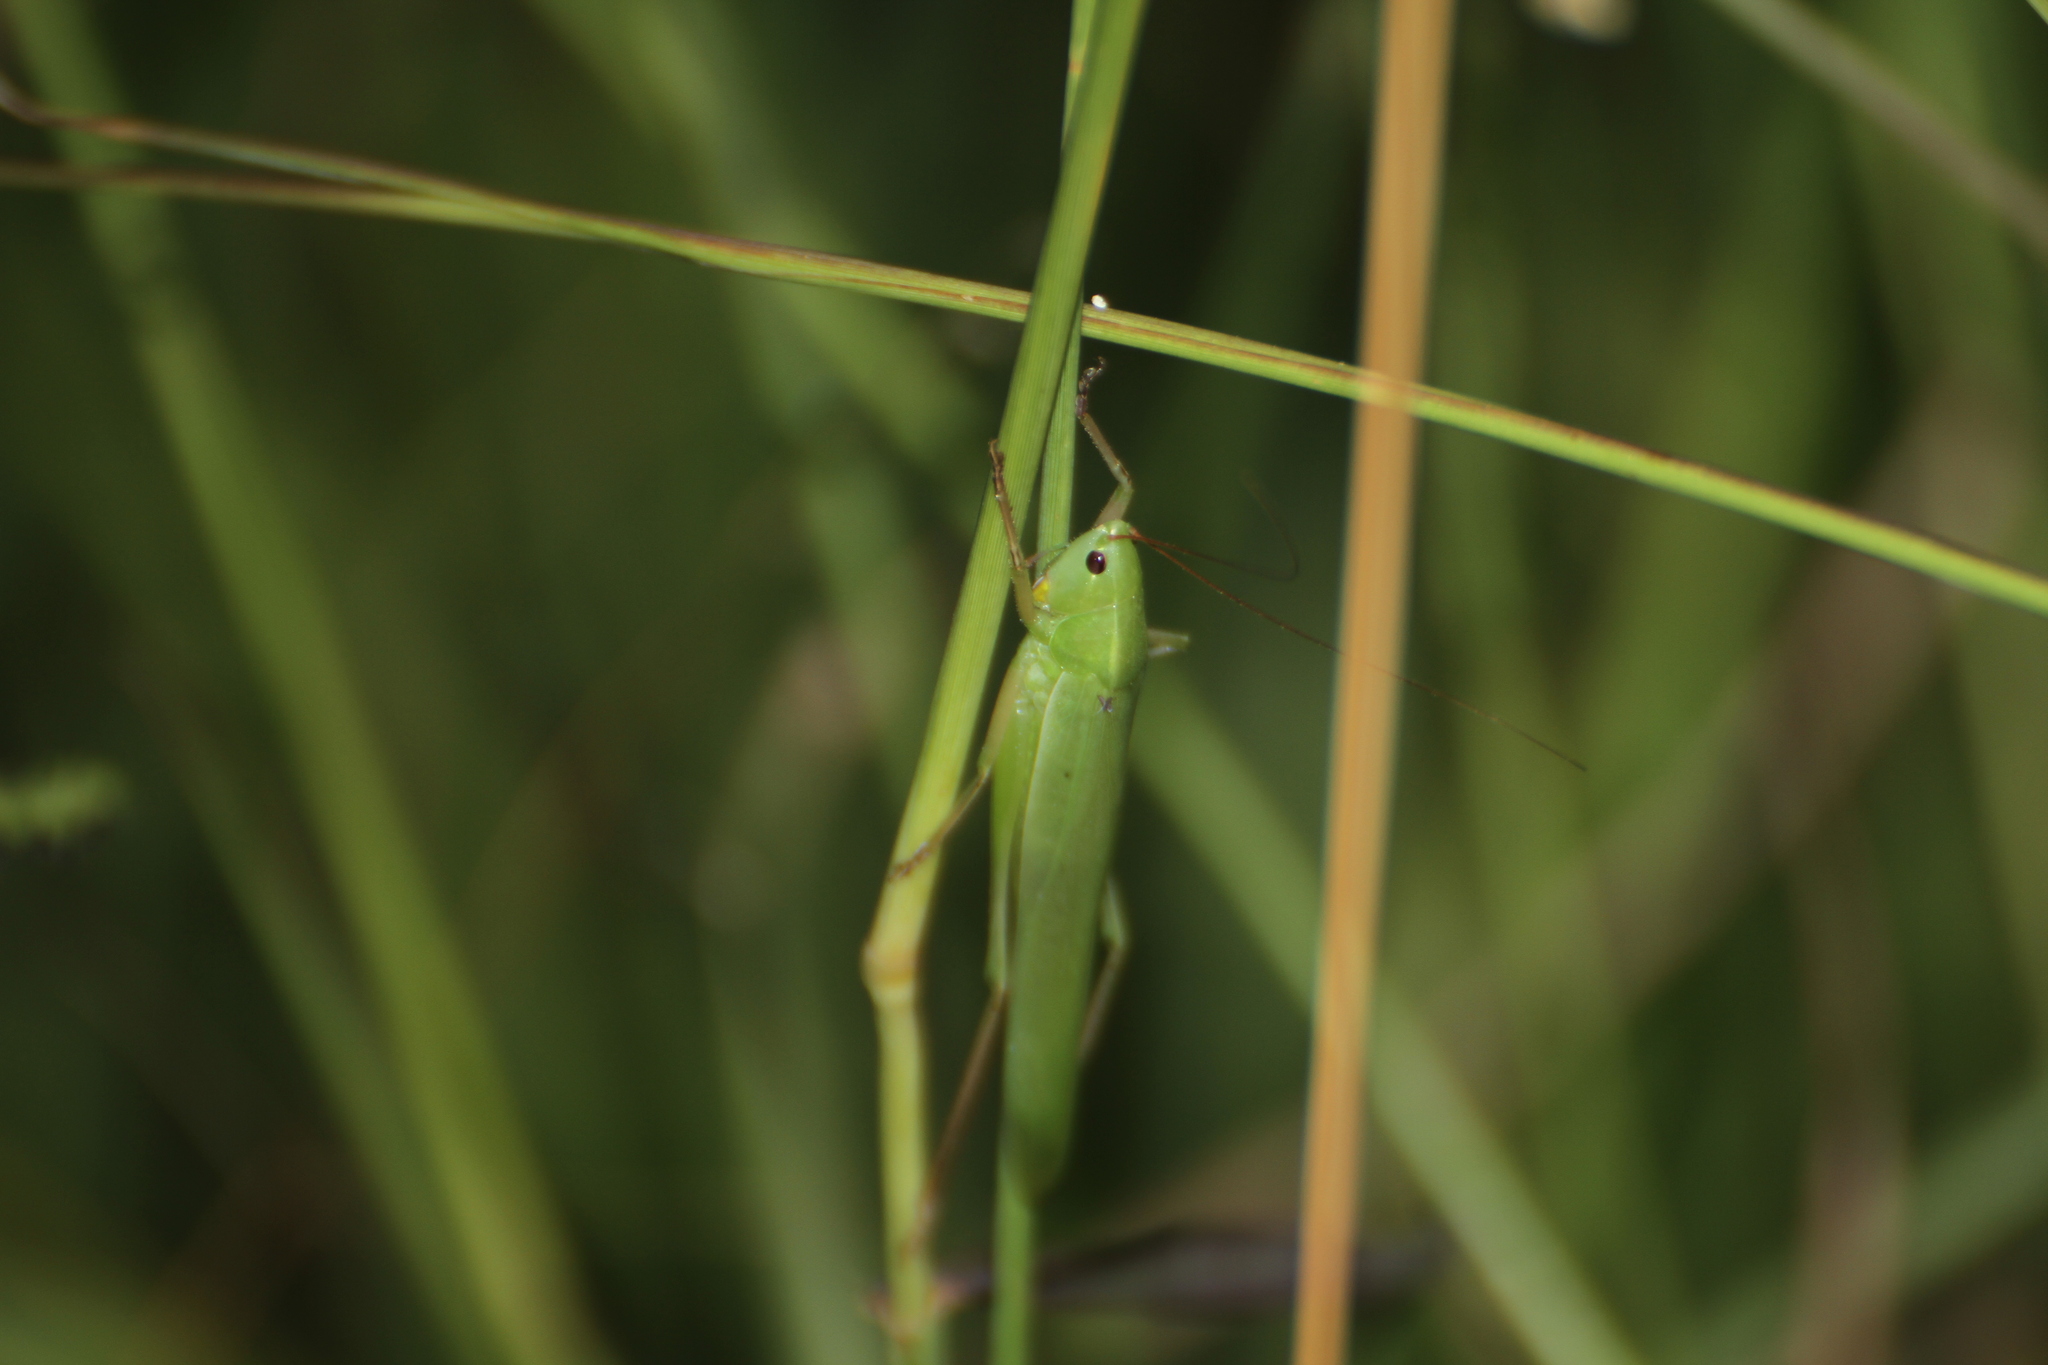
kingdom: Animalia
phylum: Arthropoda
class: Insecta
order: Orthoptera
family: Tettigoniidae
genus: Ruspolia
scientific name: Ruspolia nitidula
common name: Large conehead
